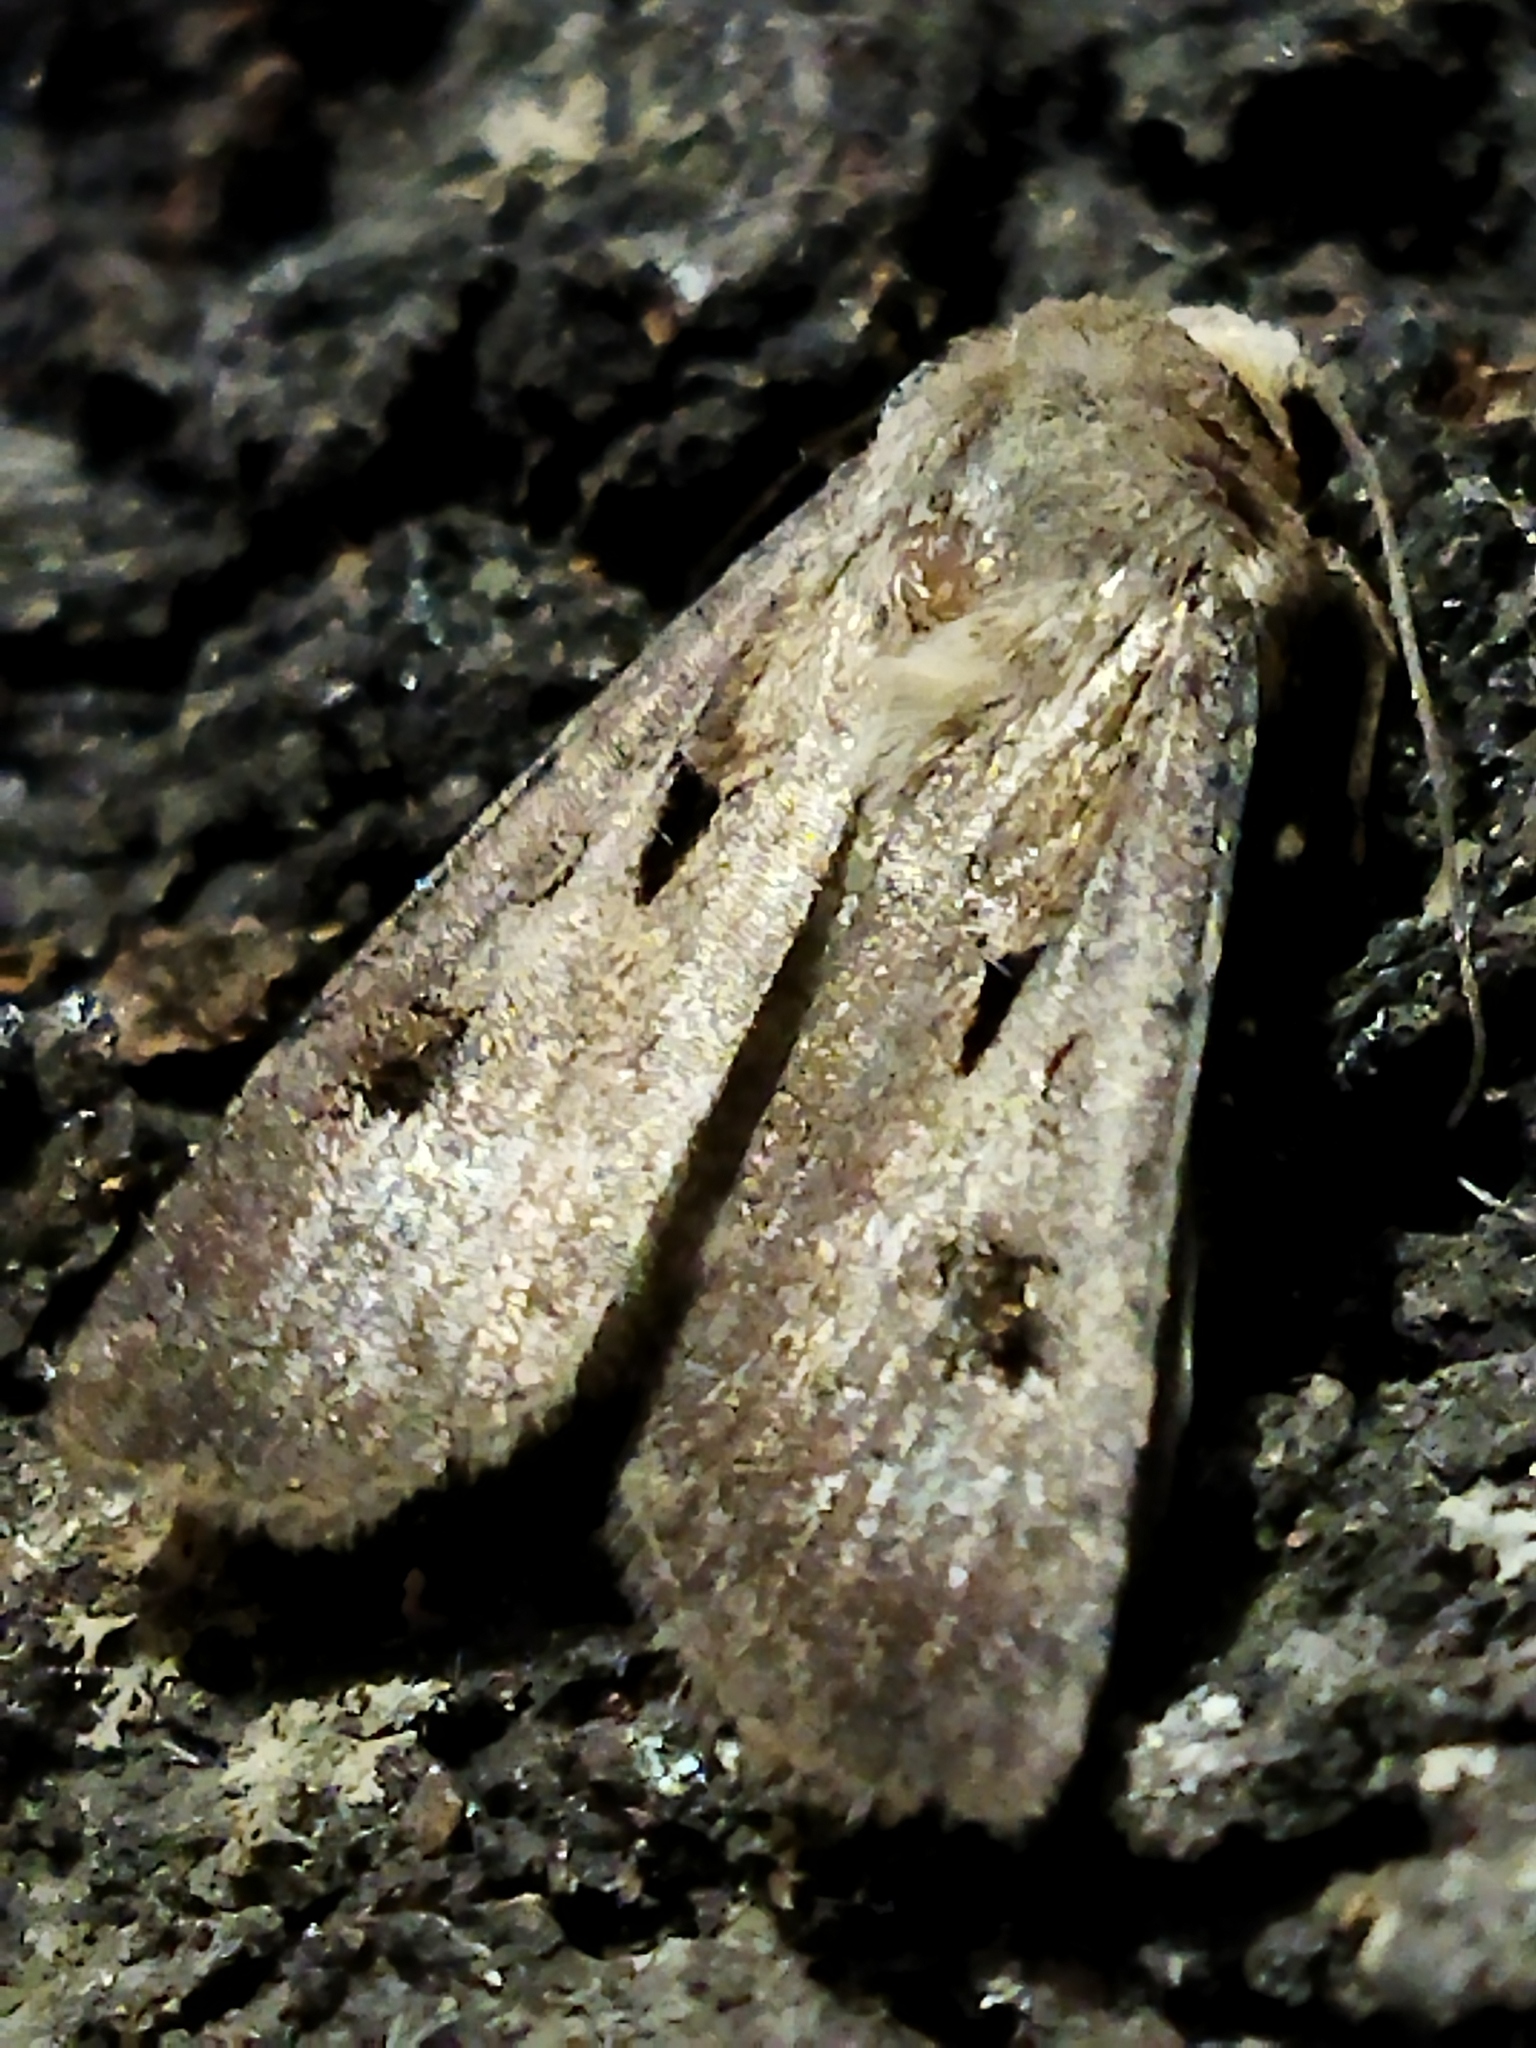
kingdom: Animalia
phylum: Arthropoda
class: Insecta
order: Lepidoptera
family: Noctuidae
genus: Agrotis
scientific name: Agrotis exclamationis
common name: Heart and dart
